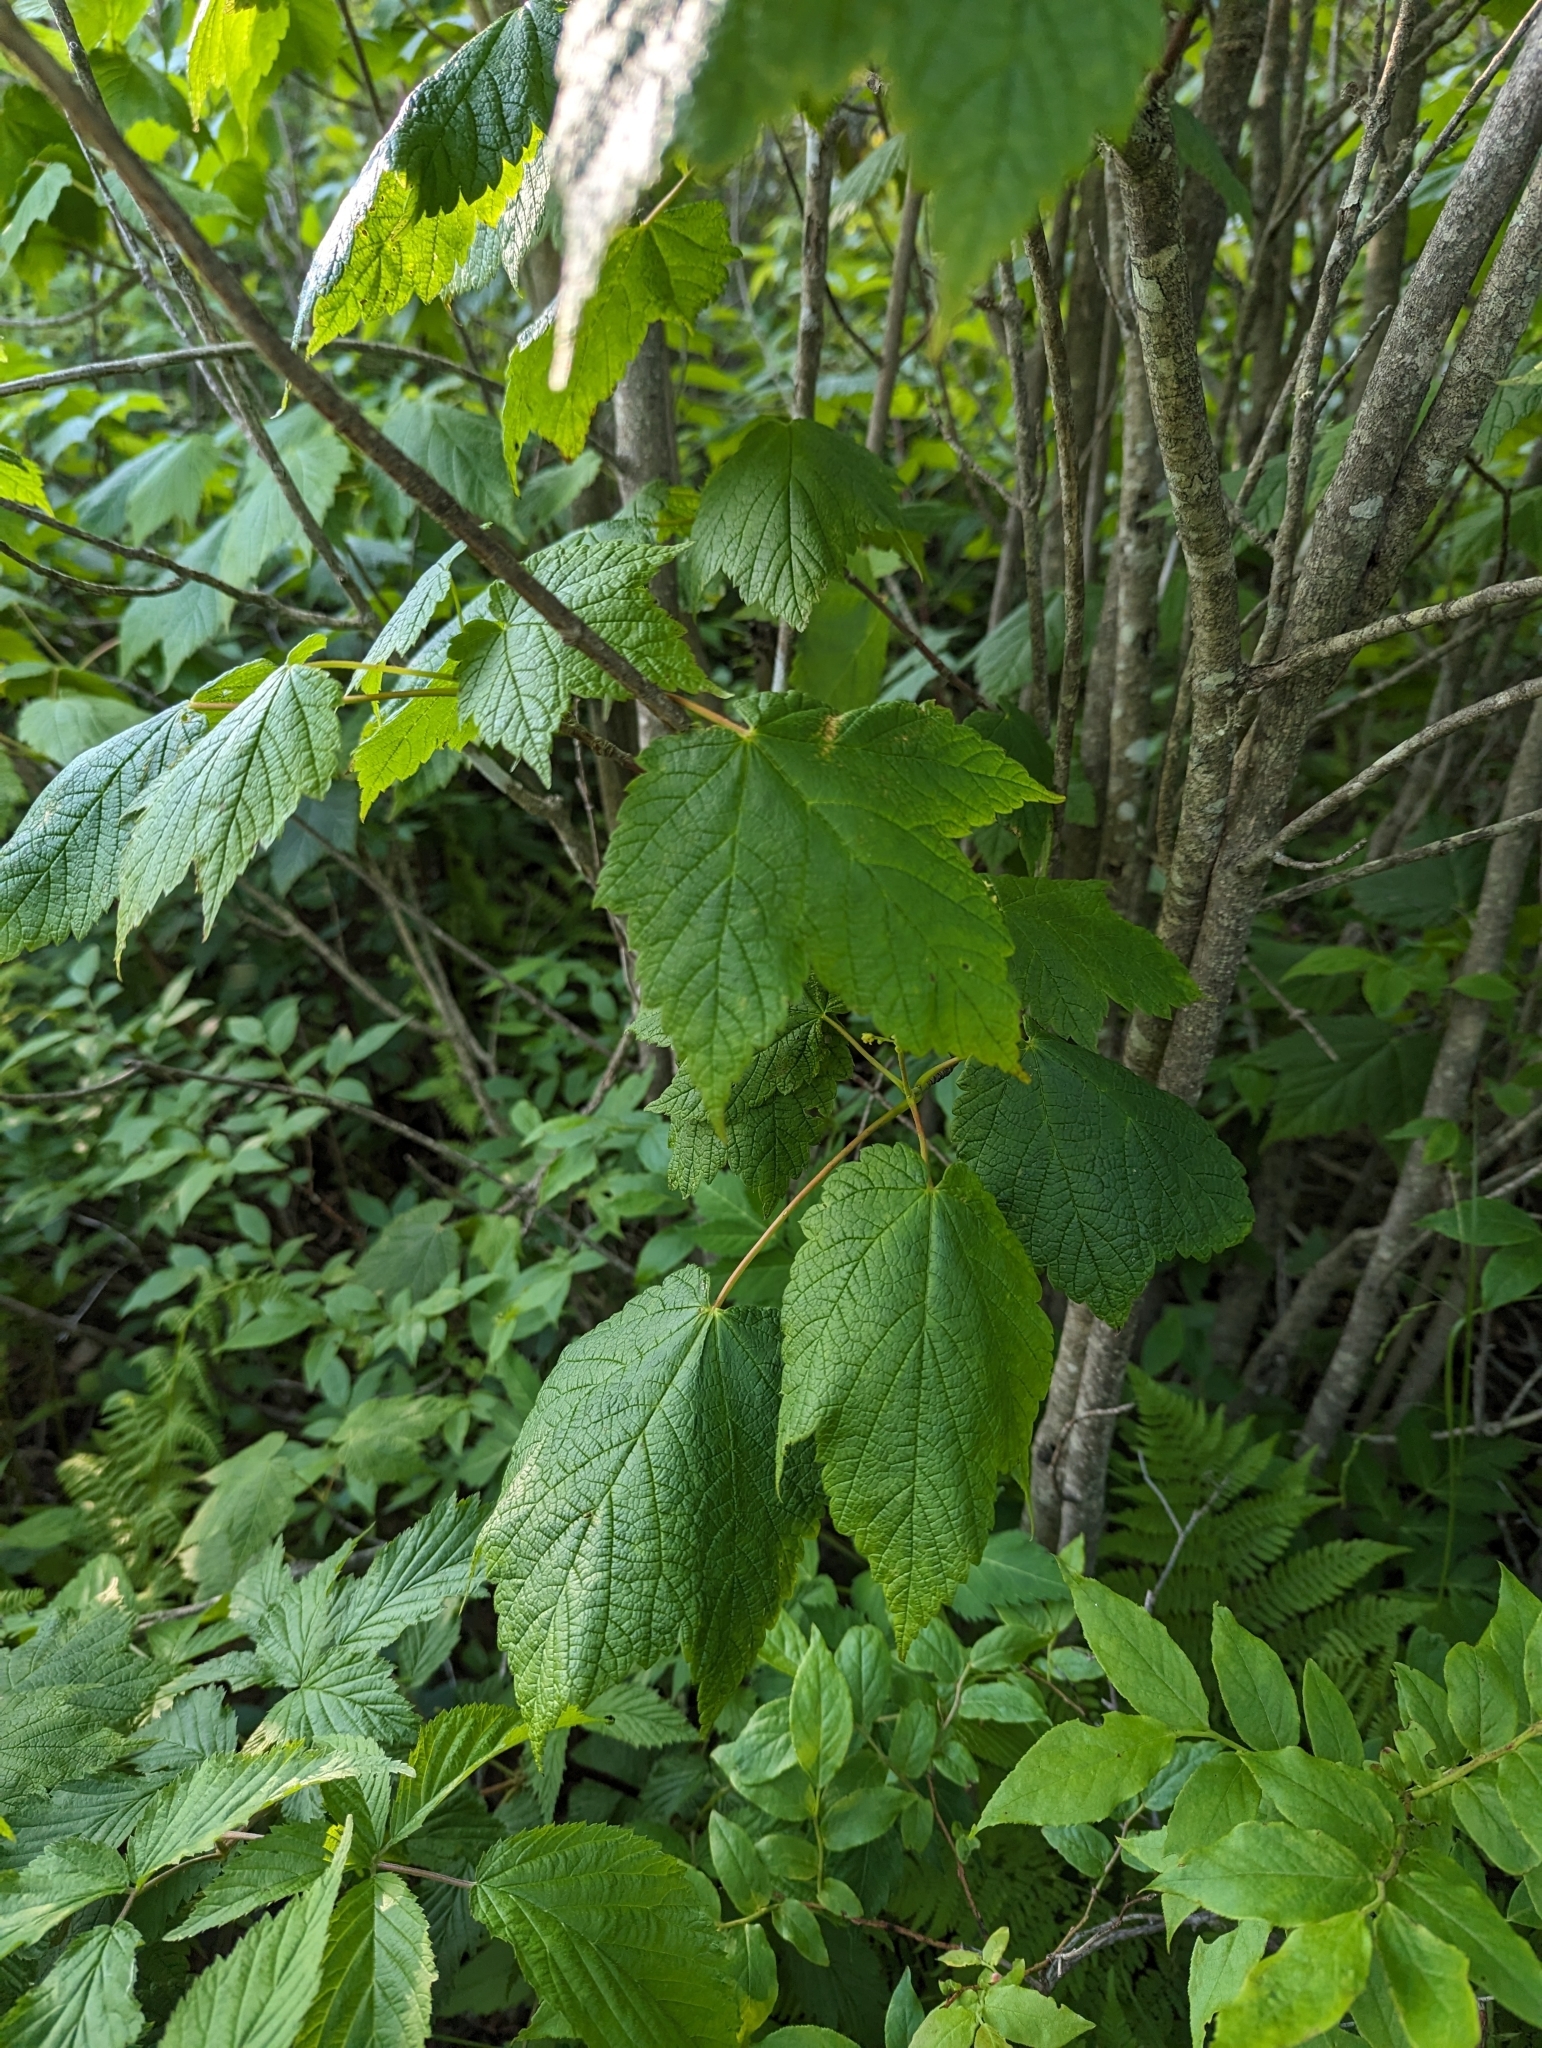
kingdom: Plantae
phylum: Tracheophyta
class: Magnoliopsida
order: Sapindales
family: Sapindaceae
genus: Acer
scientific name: Acer spicatum
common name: Mountain maple
